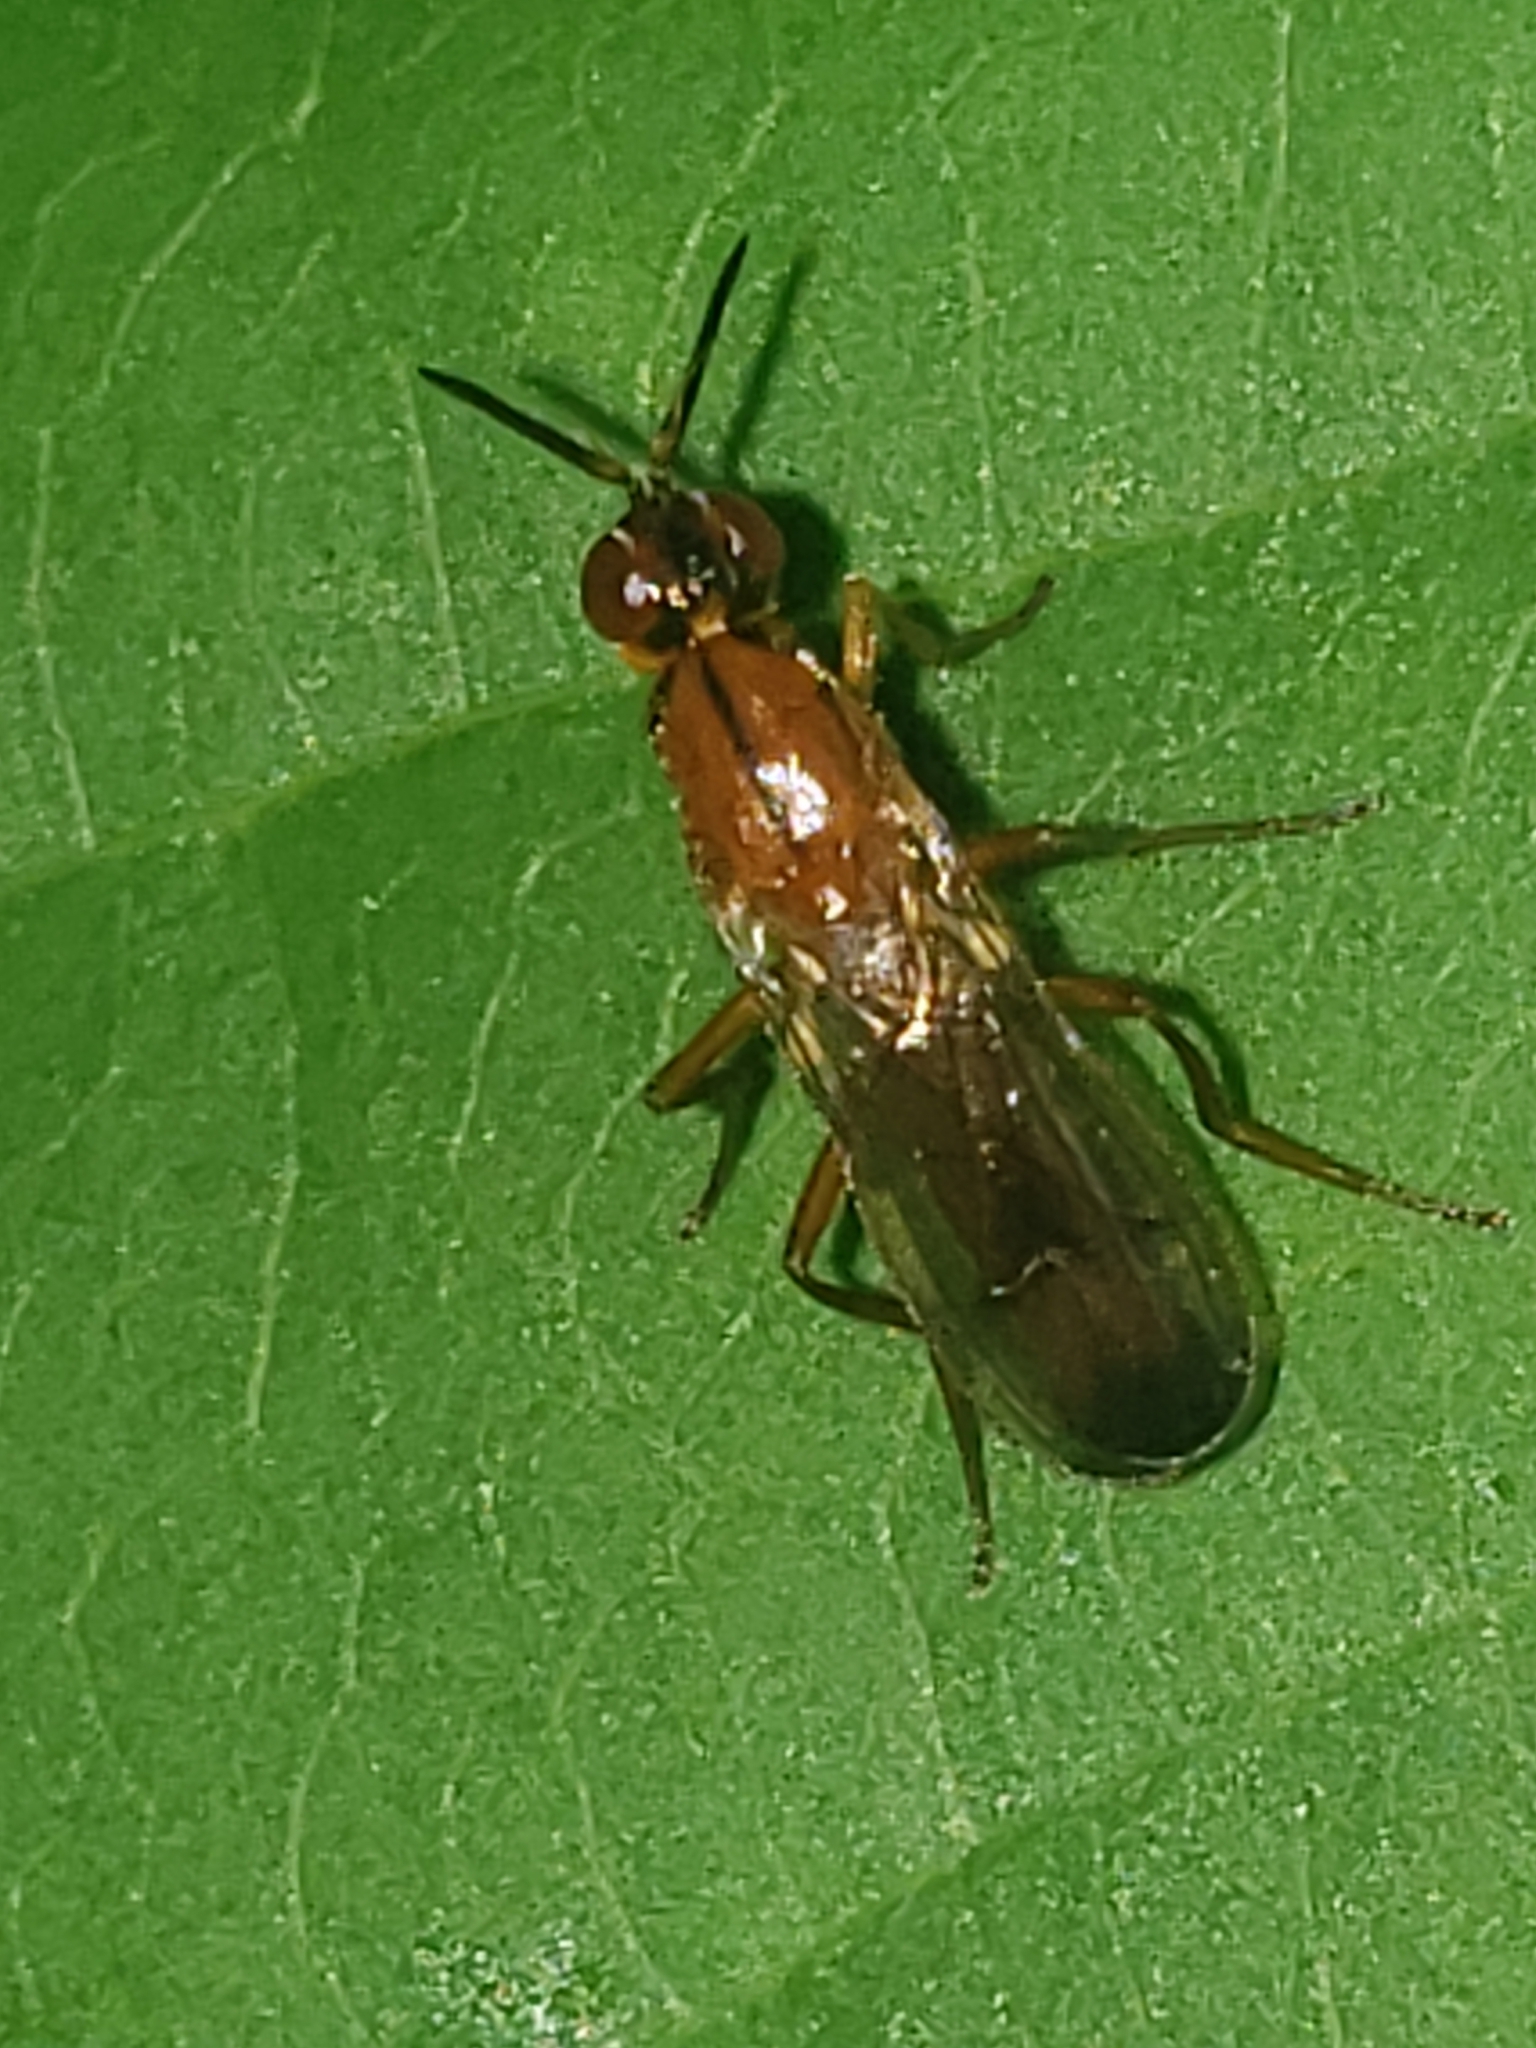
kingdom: Animalia
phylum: Arthropoda
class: Insecta
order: Diptera
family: Psilidae
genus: Loxocera
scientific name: Loxocera cylindrica
